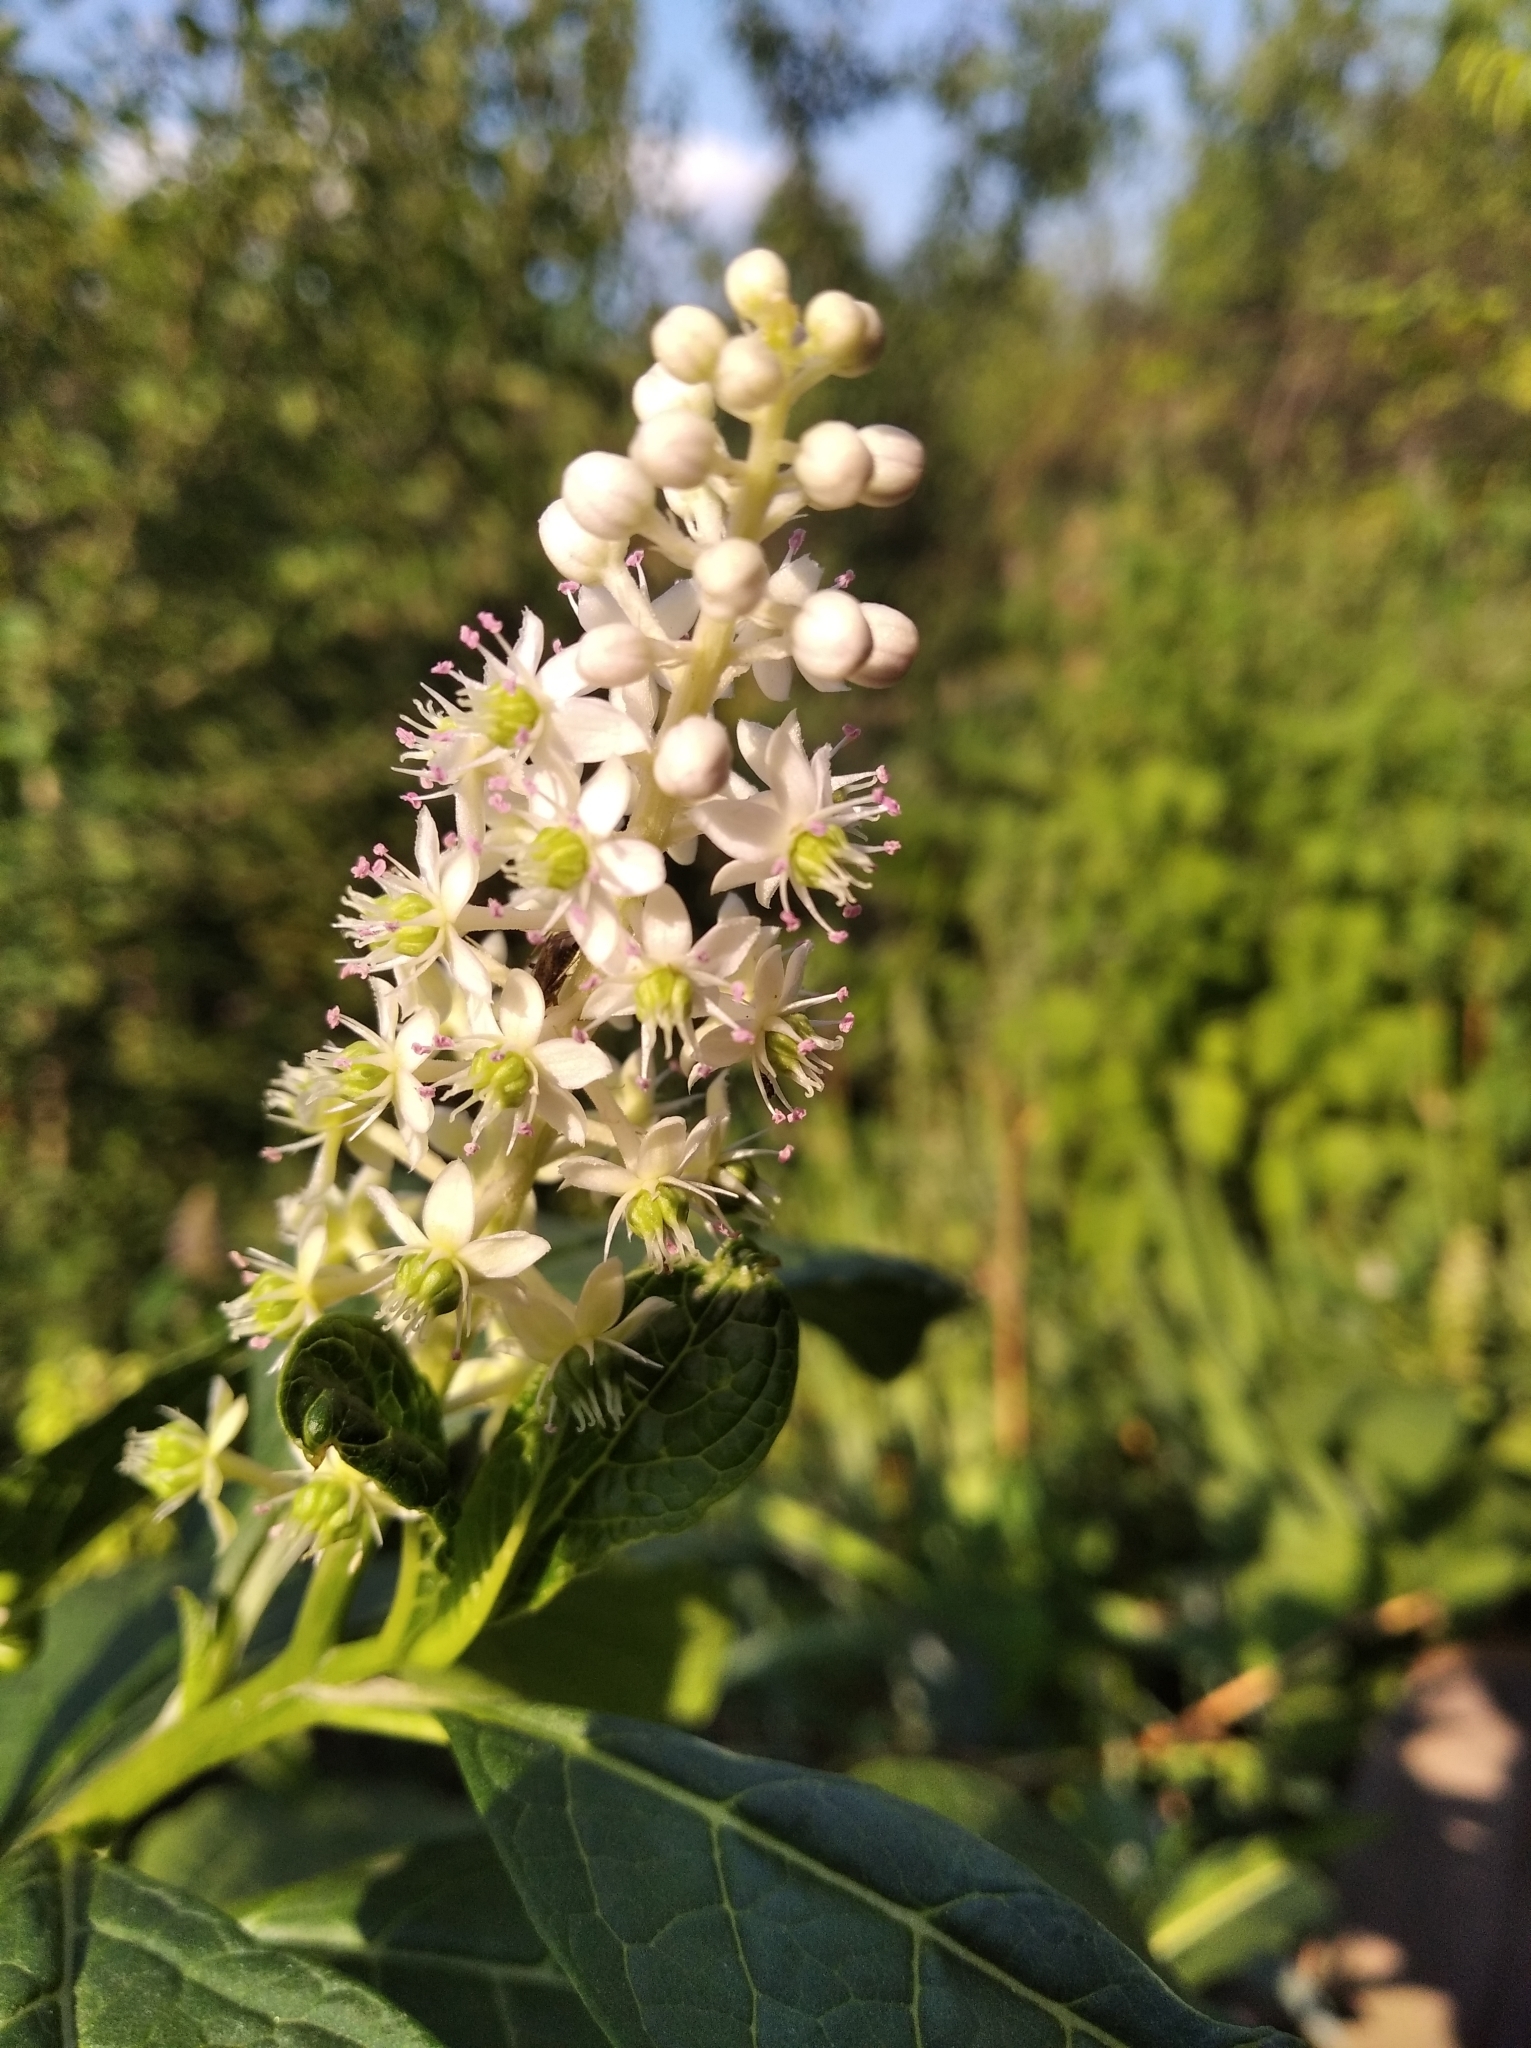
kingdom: Plantae
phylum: Tracheophyta
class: Magnoliopsida
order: Caryophyllales
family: Phytolaccaceae
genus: Phytolacca
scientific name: Phytolacca acinosa
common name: Indian pokeweed
